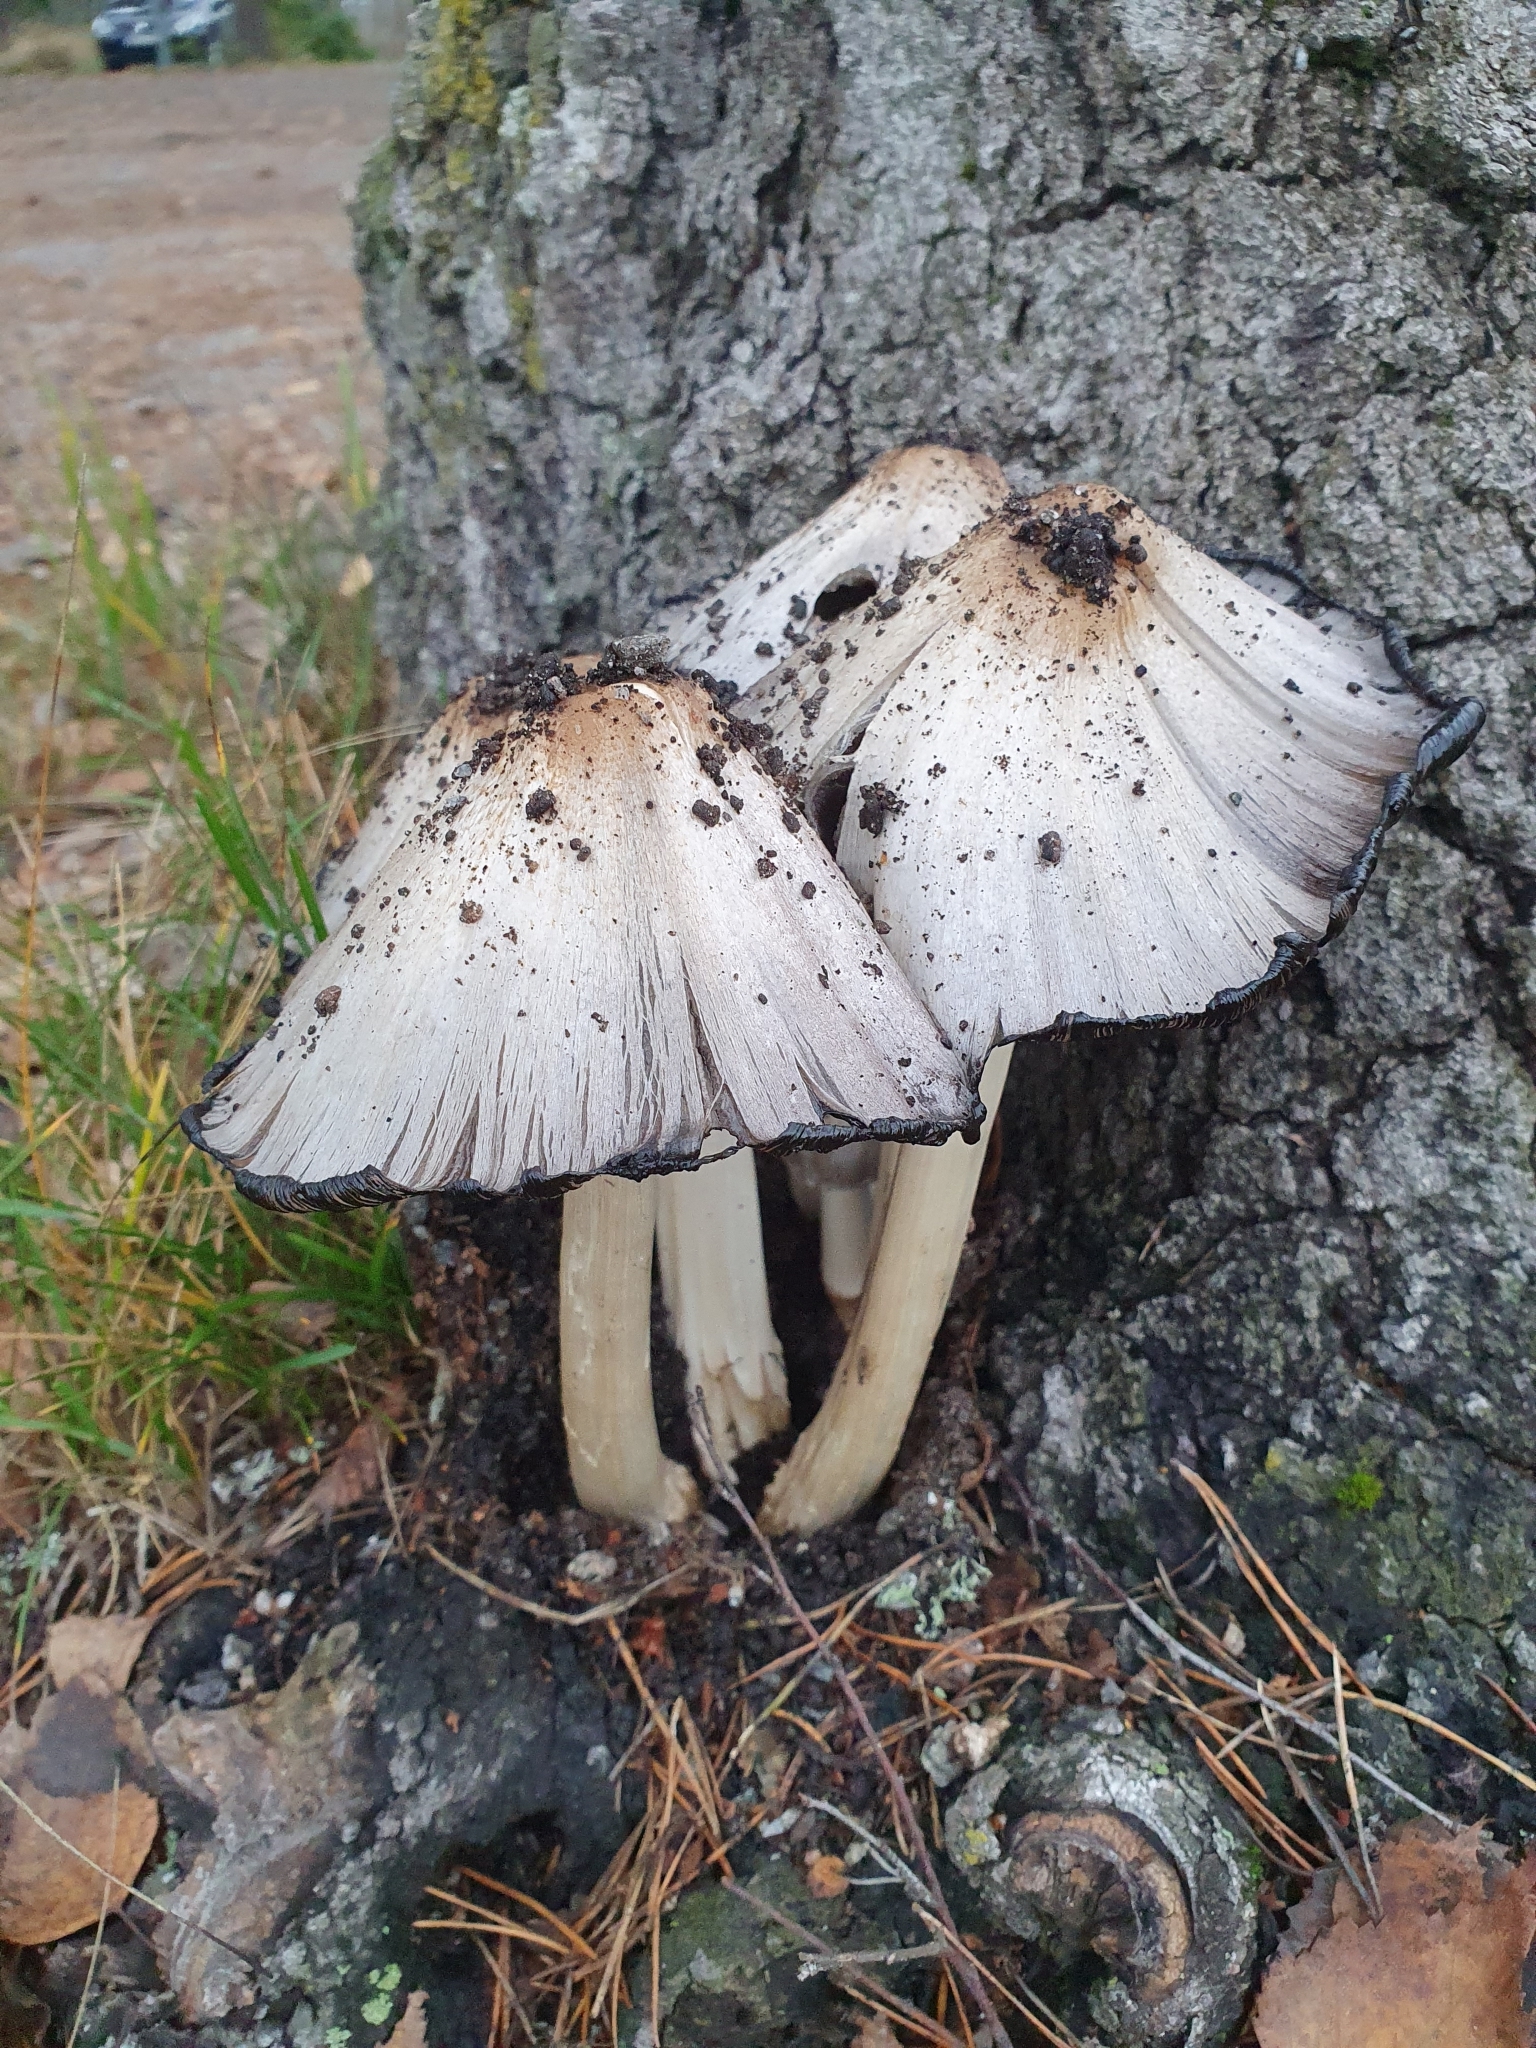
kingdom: Fungi
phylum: Basidiomycota
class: Agaricomycetes
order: Agaricales
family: Psathyrellaceae
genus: Coprinopsis
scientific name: Coprinopsis atramentaria
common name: Common ink-cap
